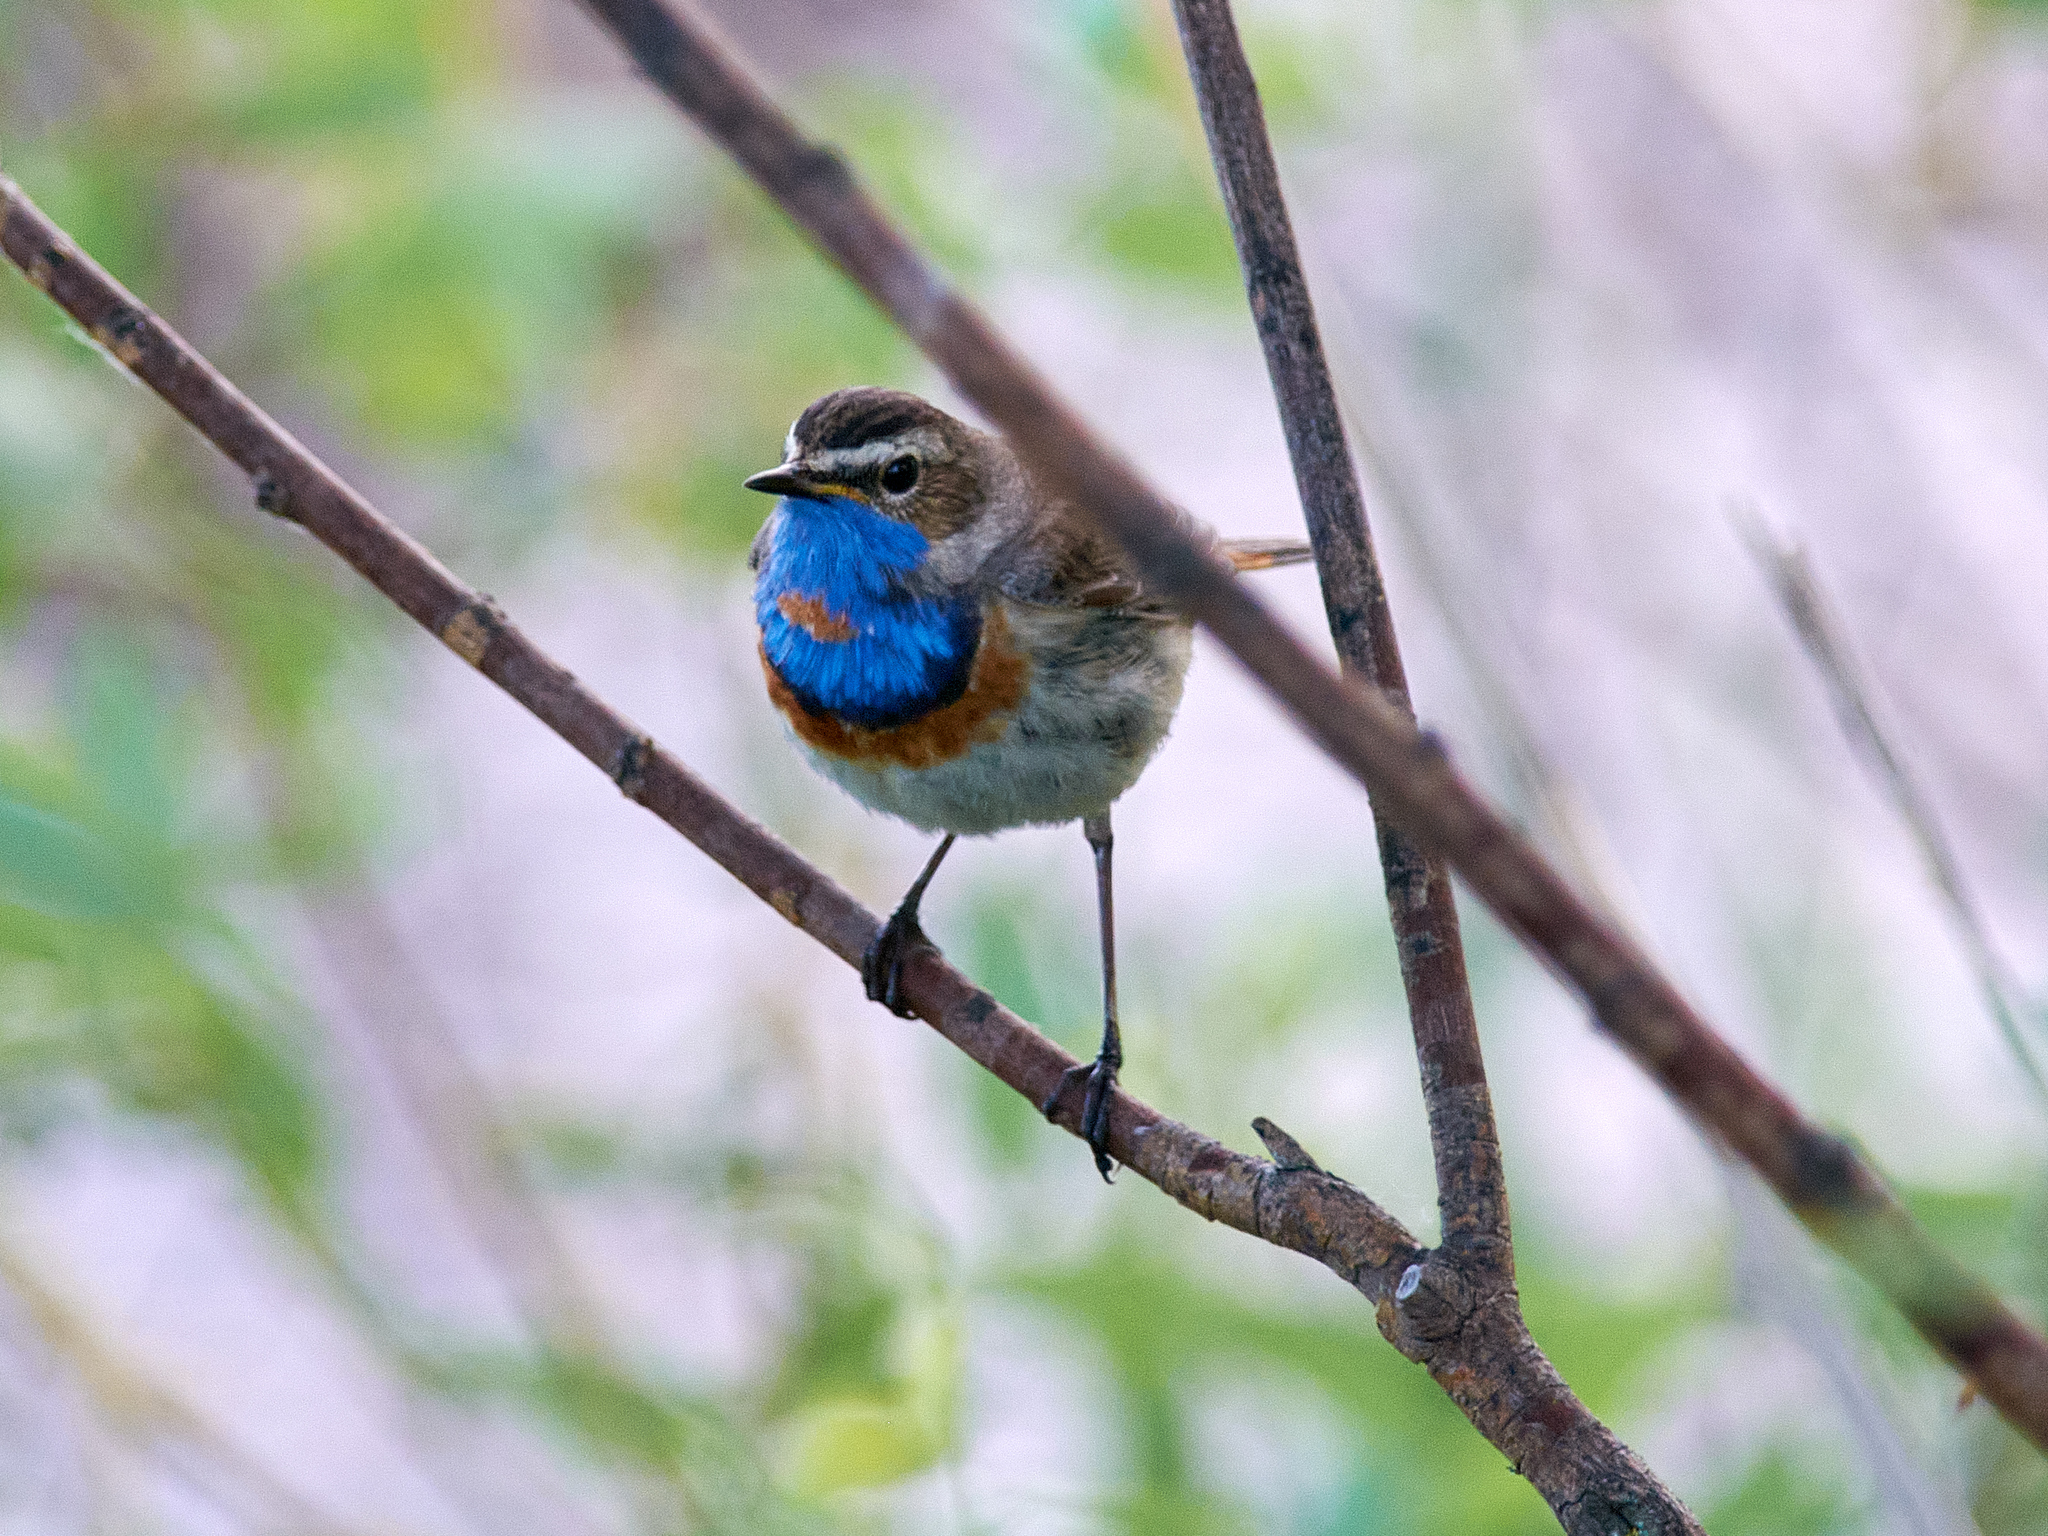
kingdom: Animalia
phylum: Chordata
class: Aves
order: Passeriformes
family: Muscicapidae
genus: Luscinia
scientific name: Luscinia svecica
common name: Bluethroat
